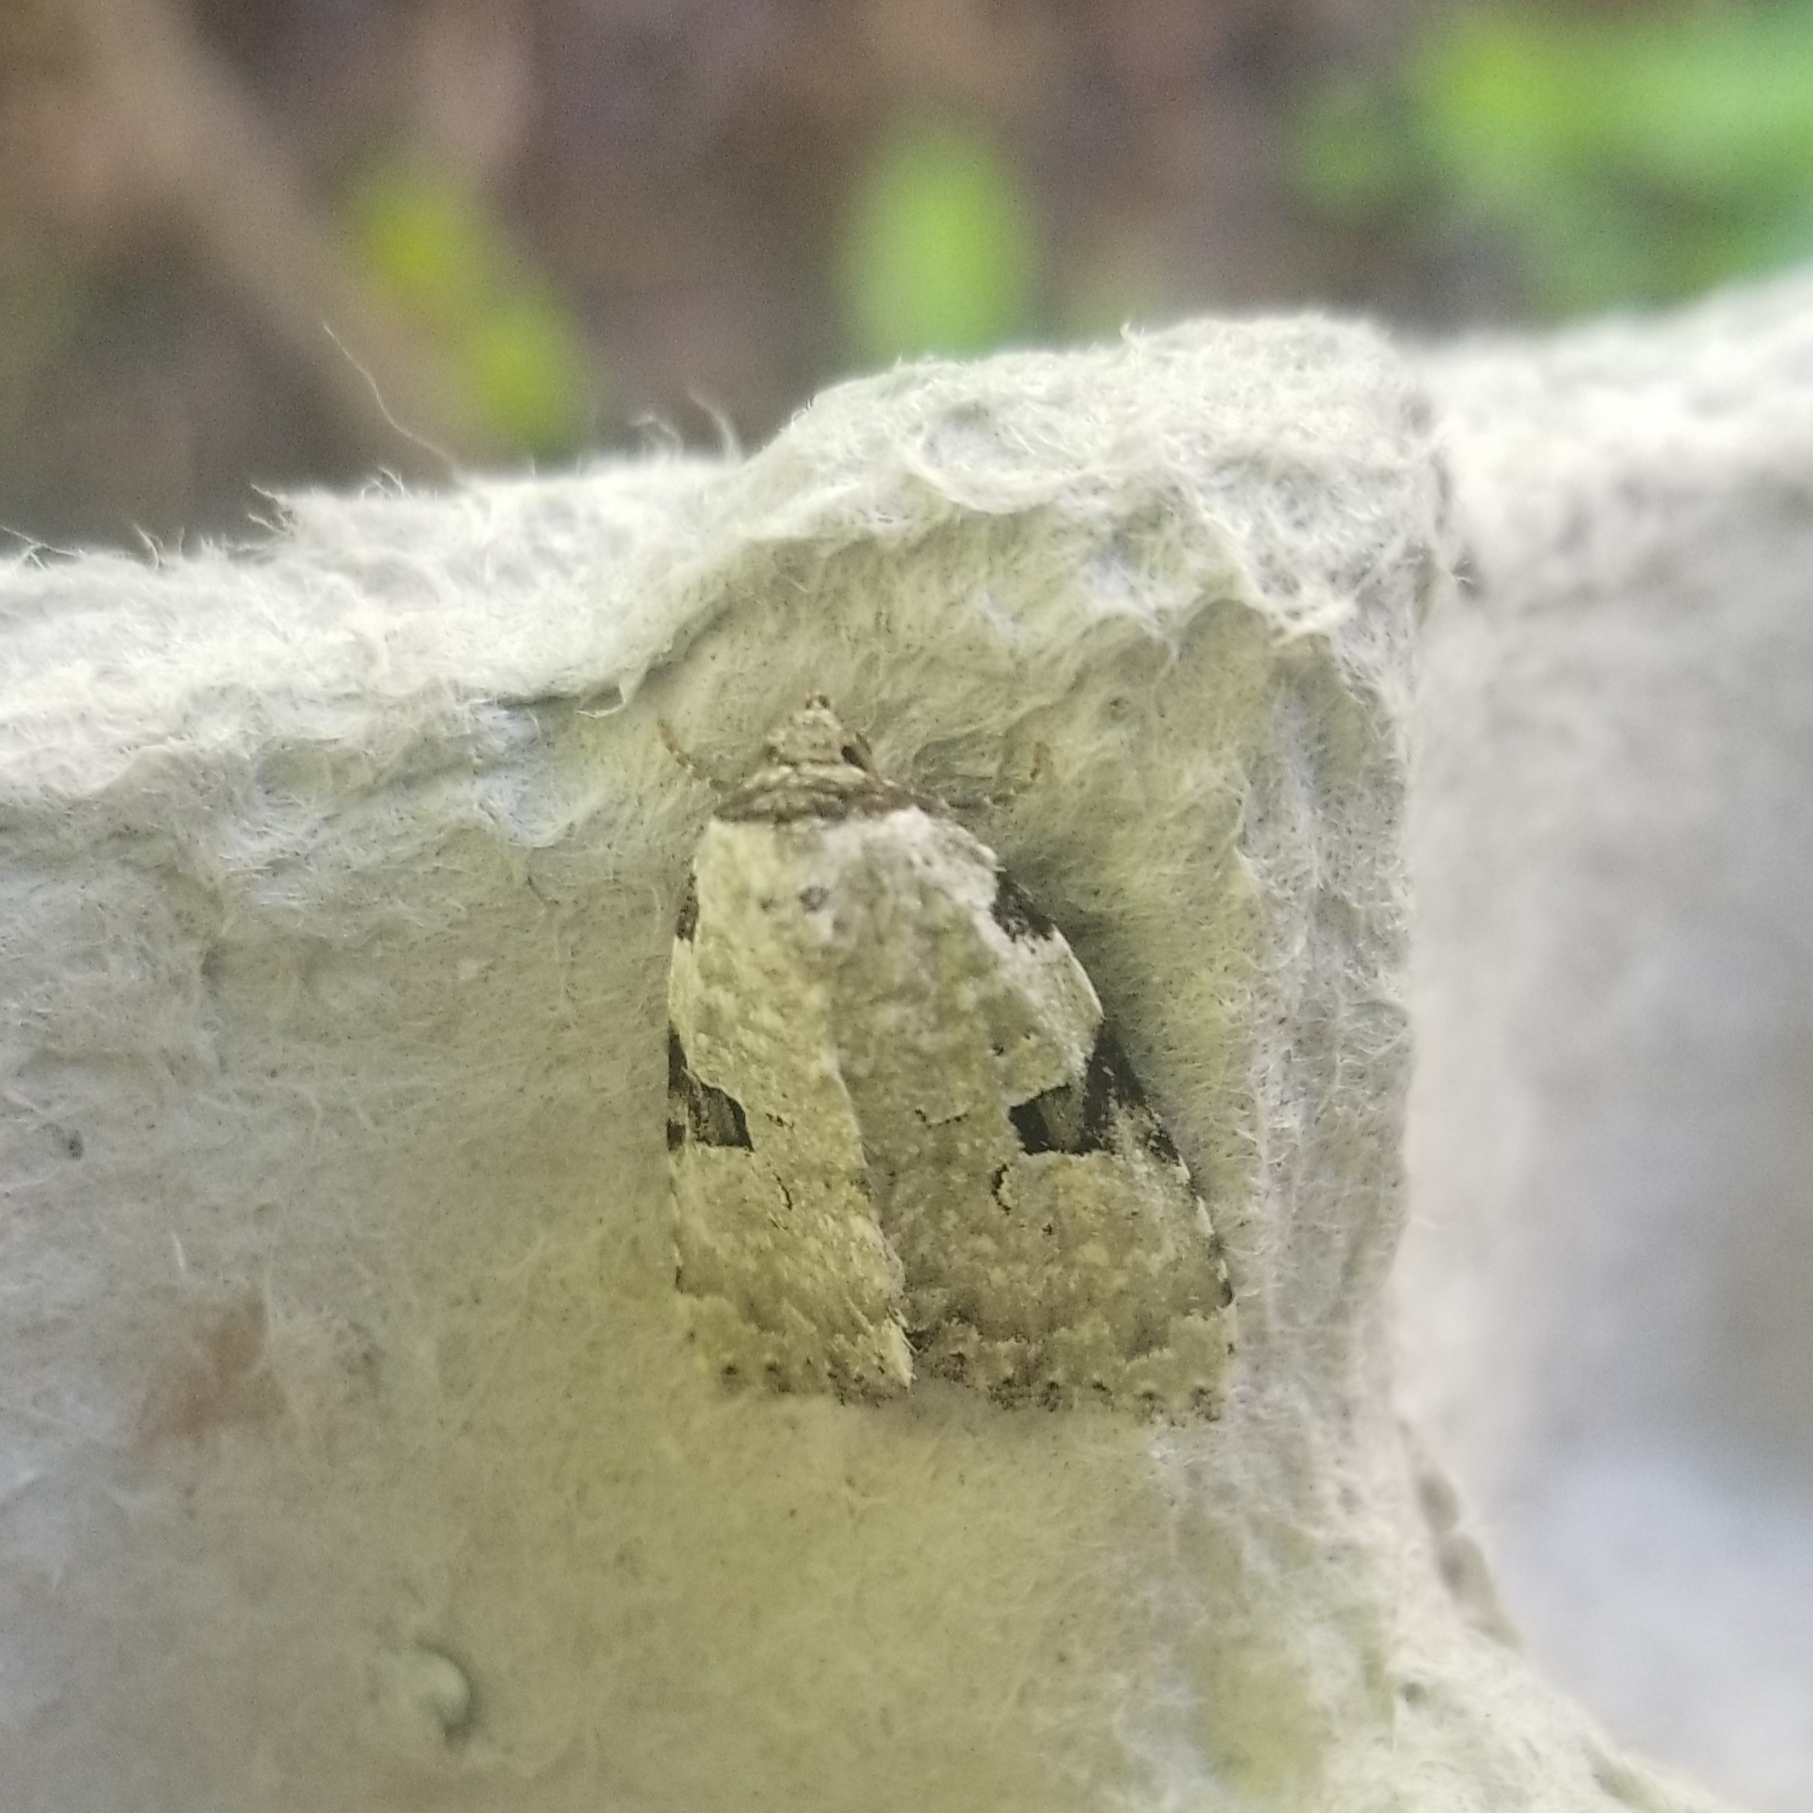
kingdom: Animalia
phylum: Arthropoda
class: Insecta
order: Lepidoptera
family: Noctuidae
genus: Leuconycta
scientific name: Leuconycta diphteroides
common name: Green leuconycta moth
